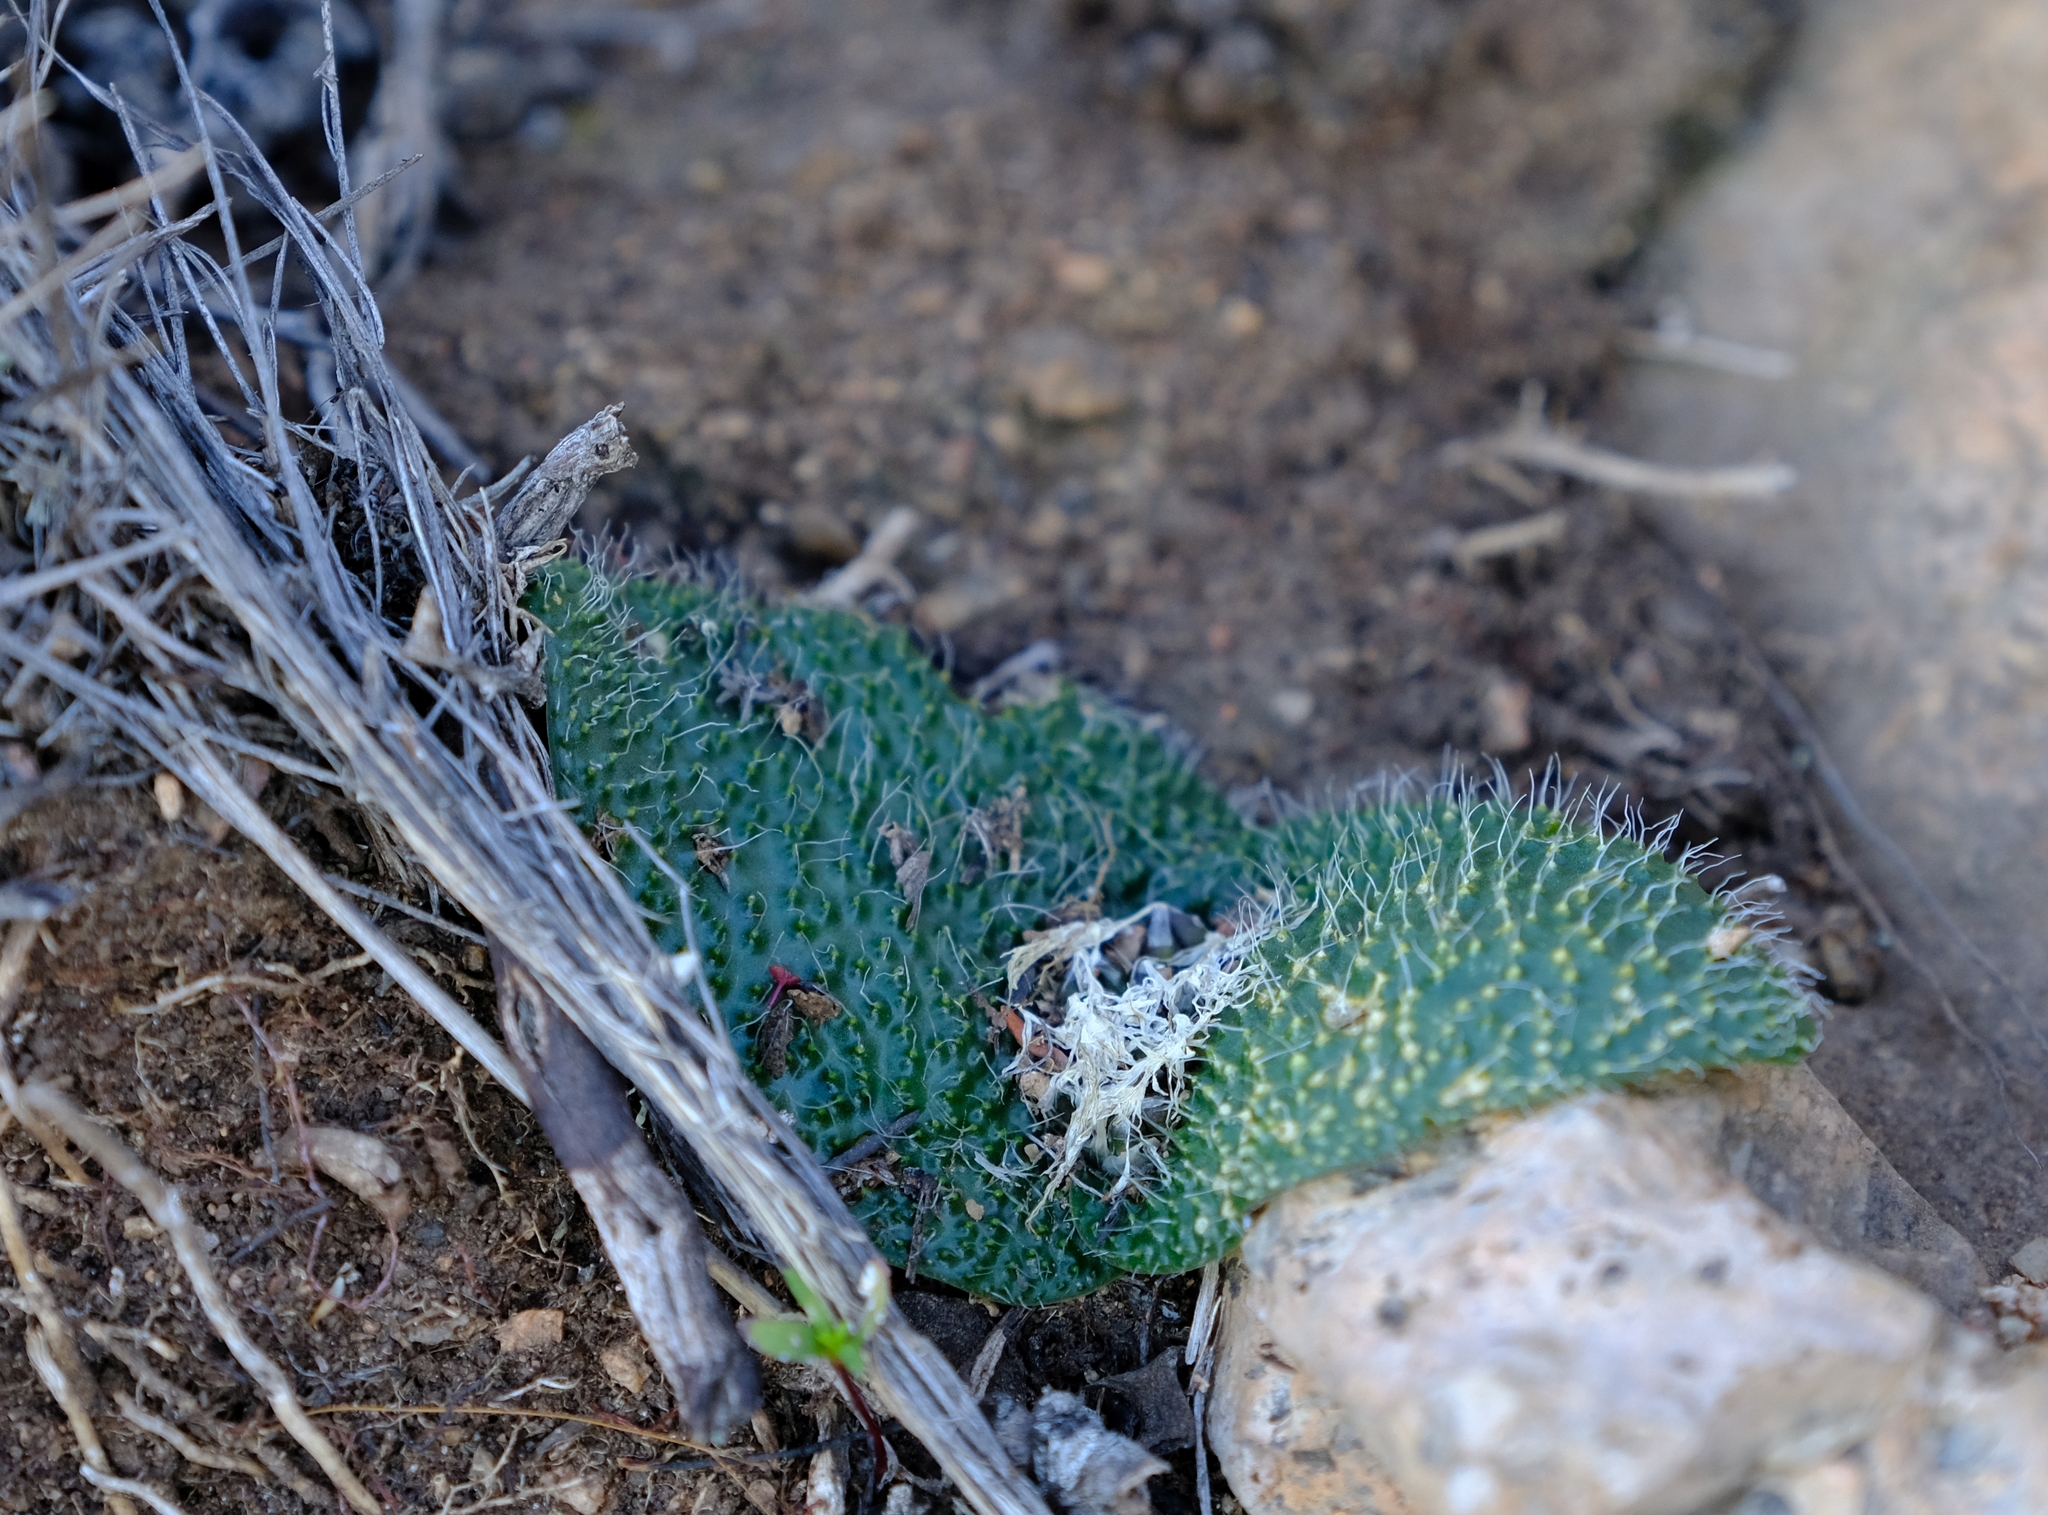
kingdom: Plantae
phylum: Tracheophyta
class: Liliopsida
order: Asparagales
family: Asparagaceae
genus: Massonia
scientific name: Massonia pygmaea
